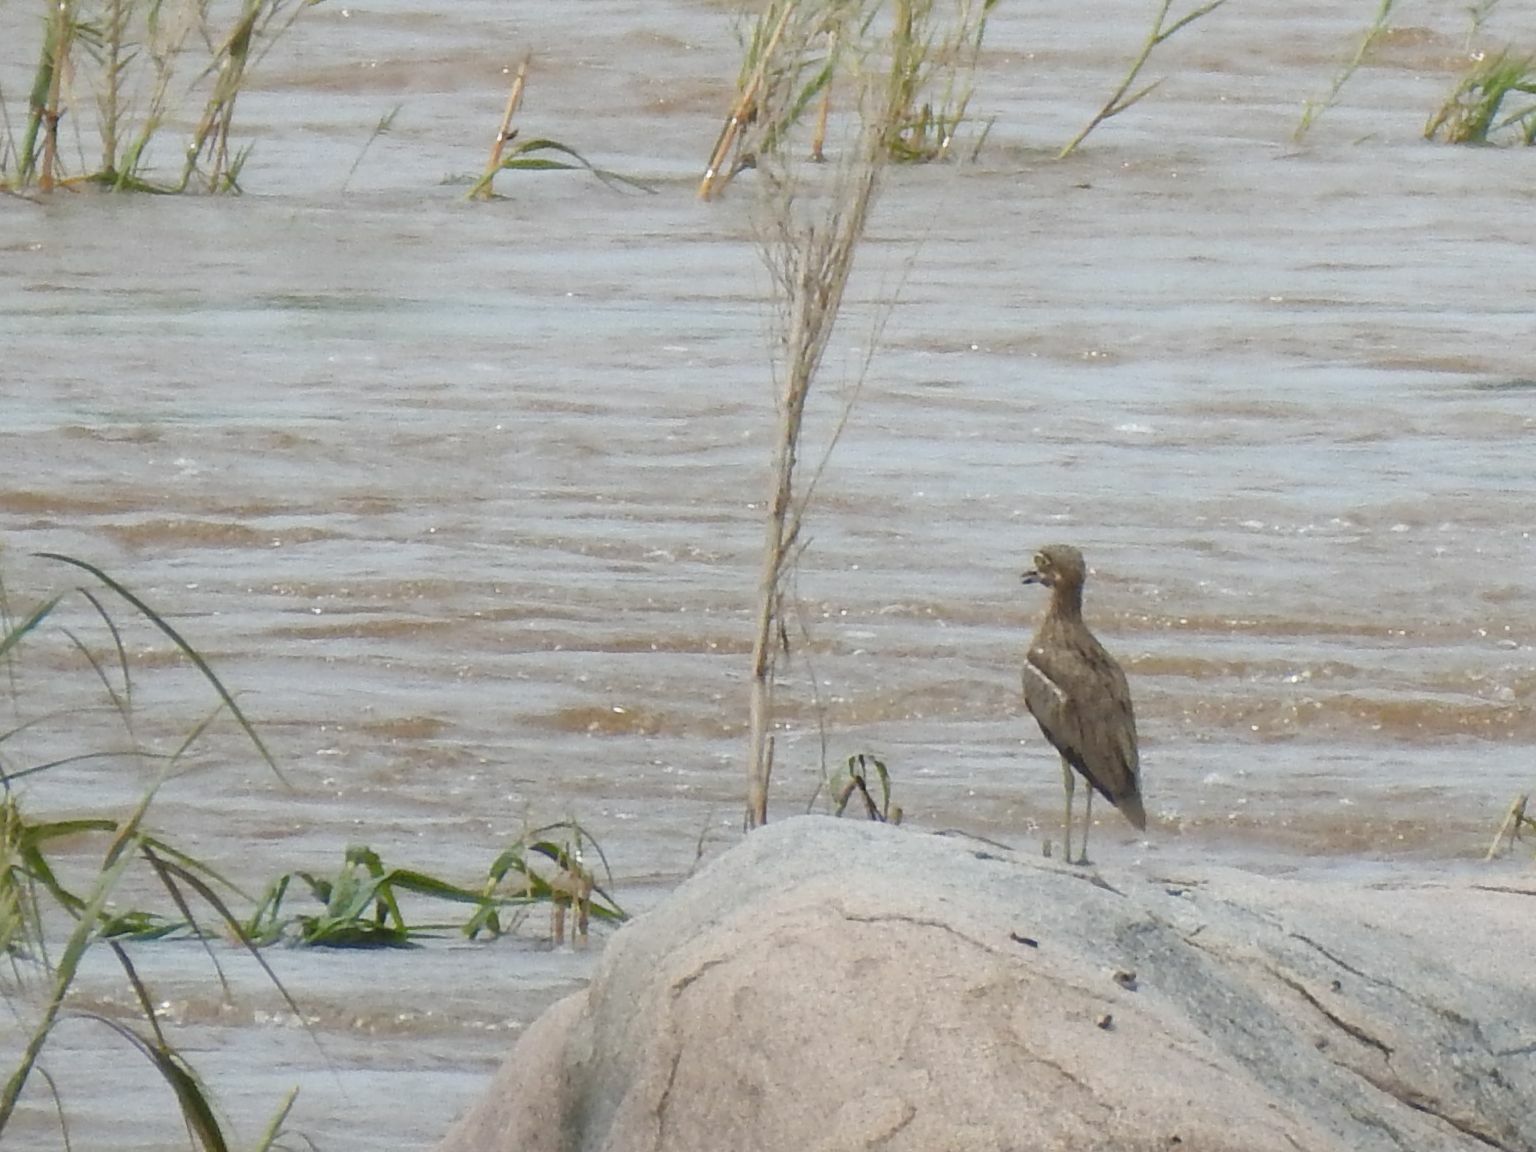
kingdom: Animalia
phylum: Chordata
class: Aves
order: Charadriiformes
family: Burhinidae
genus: Burhinus
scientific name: Burhinus vermiculatus
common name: Water thick-knee
